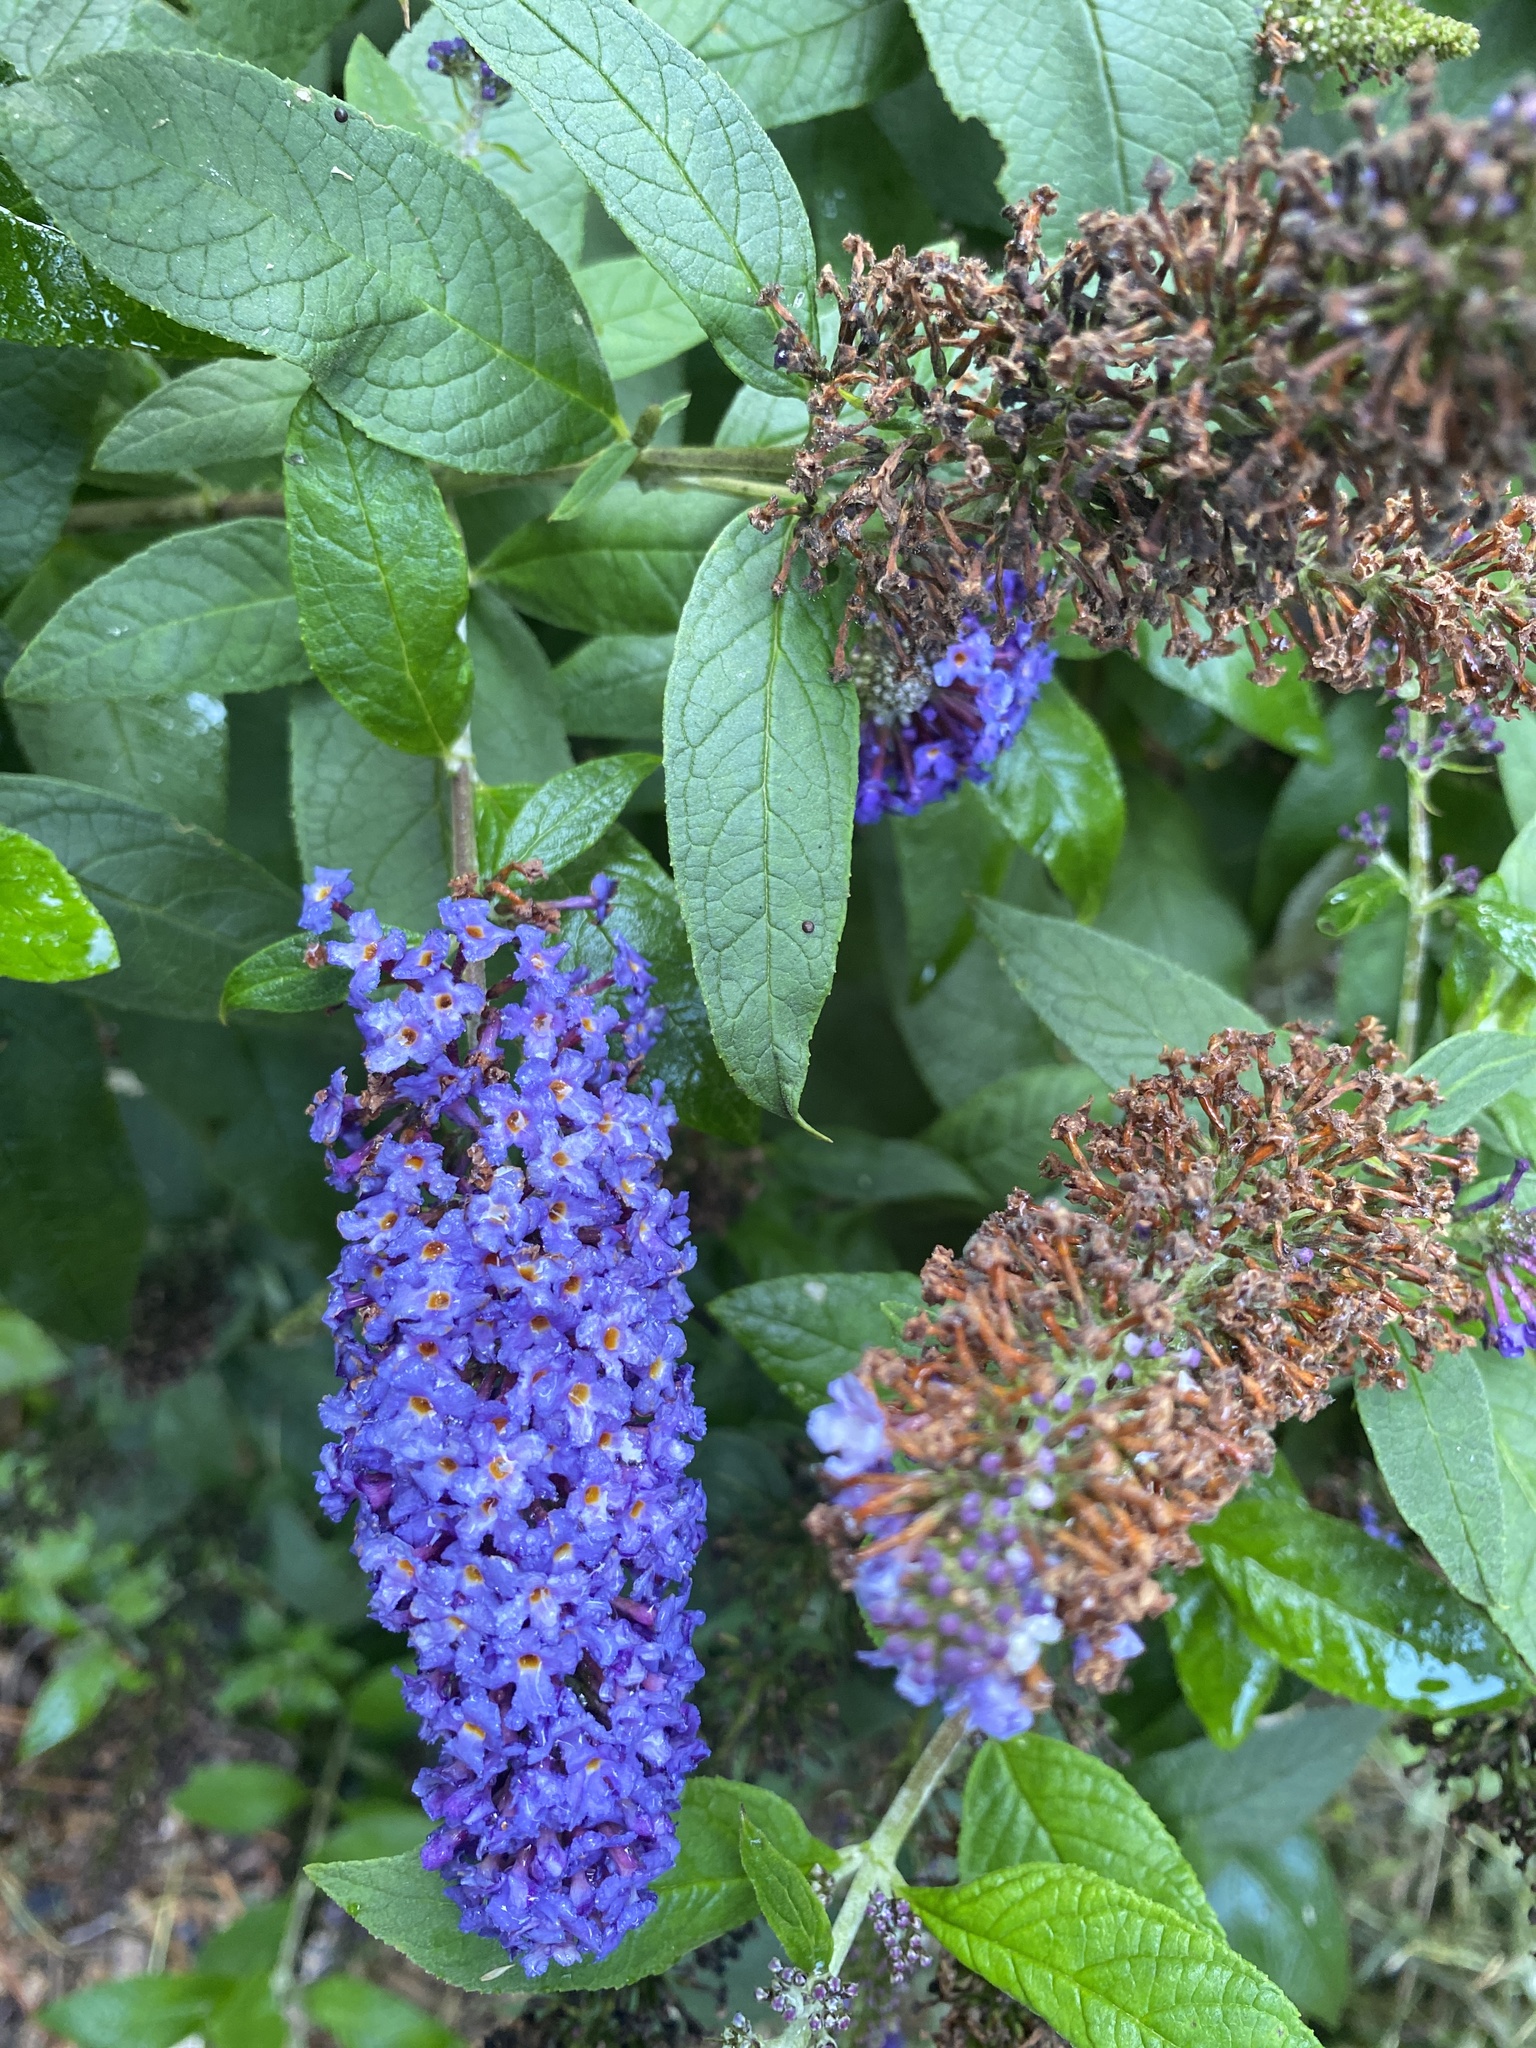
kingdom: Plantae
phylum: Tracheophyta
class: Magnoliopsida
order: Lamiales
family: Scrophulariaceae
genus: Buddleja
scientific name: Buddleja davidii
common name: Butterfly-bush
